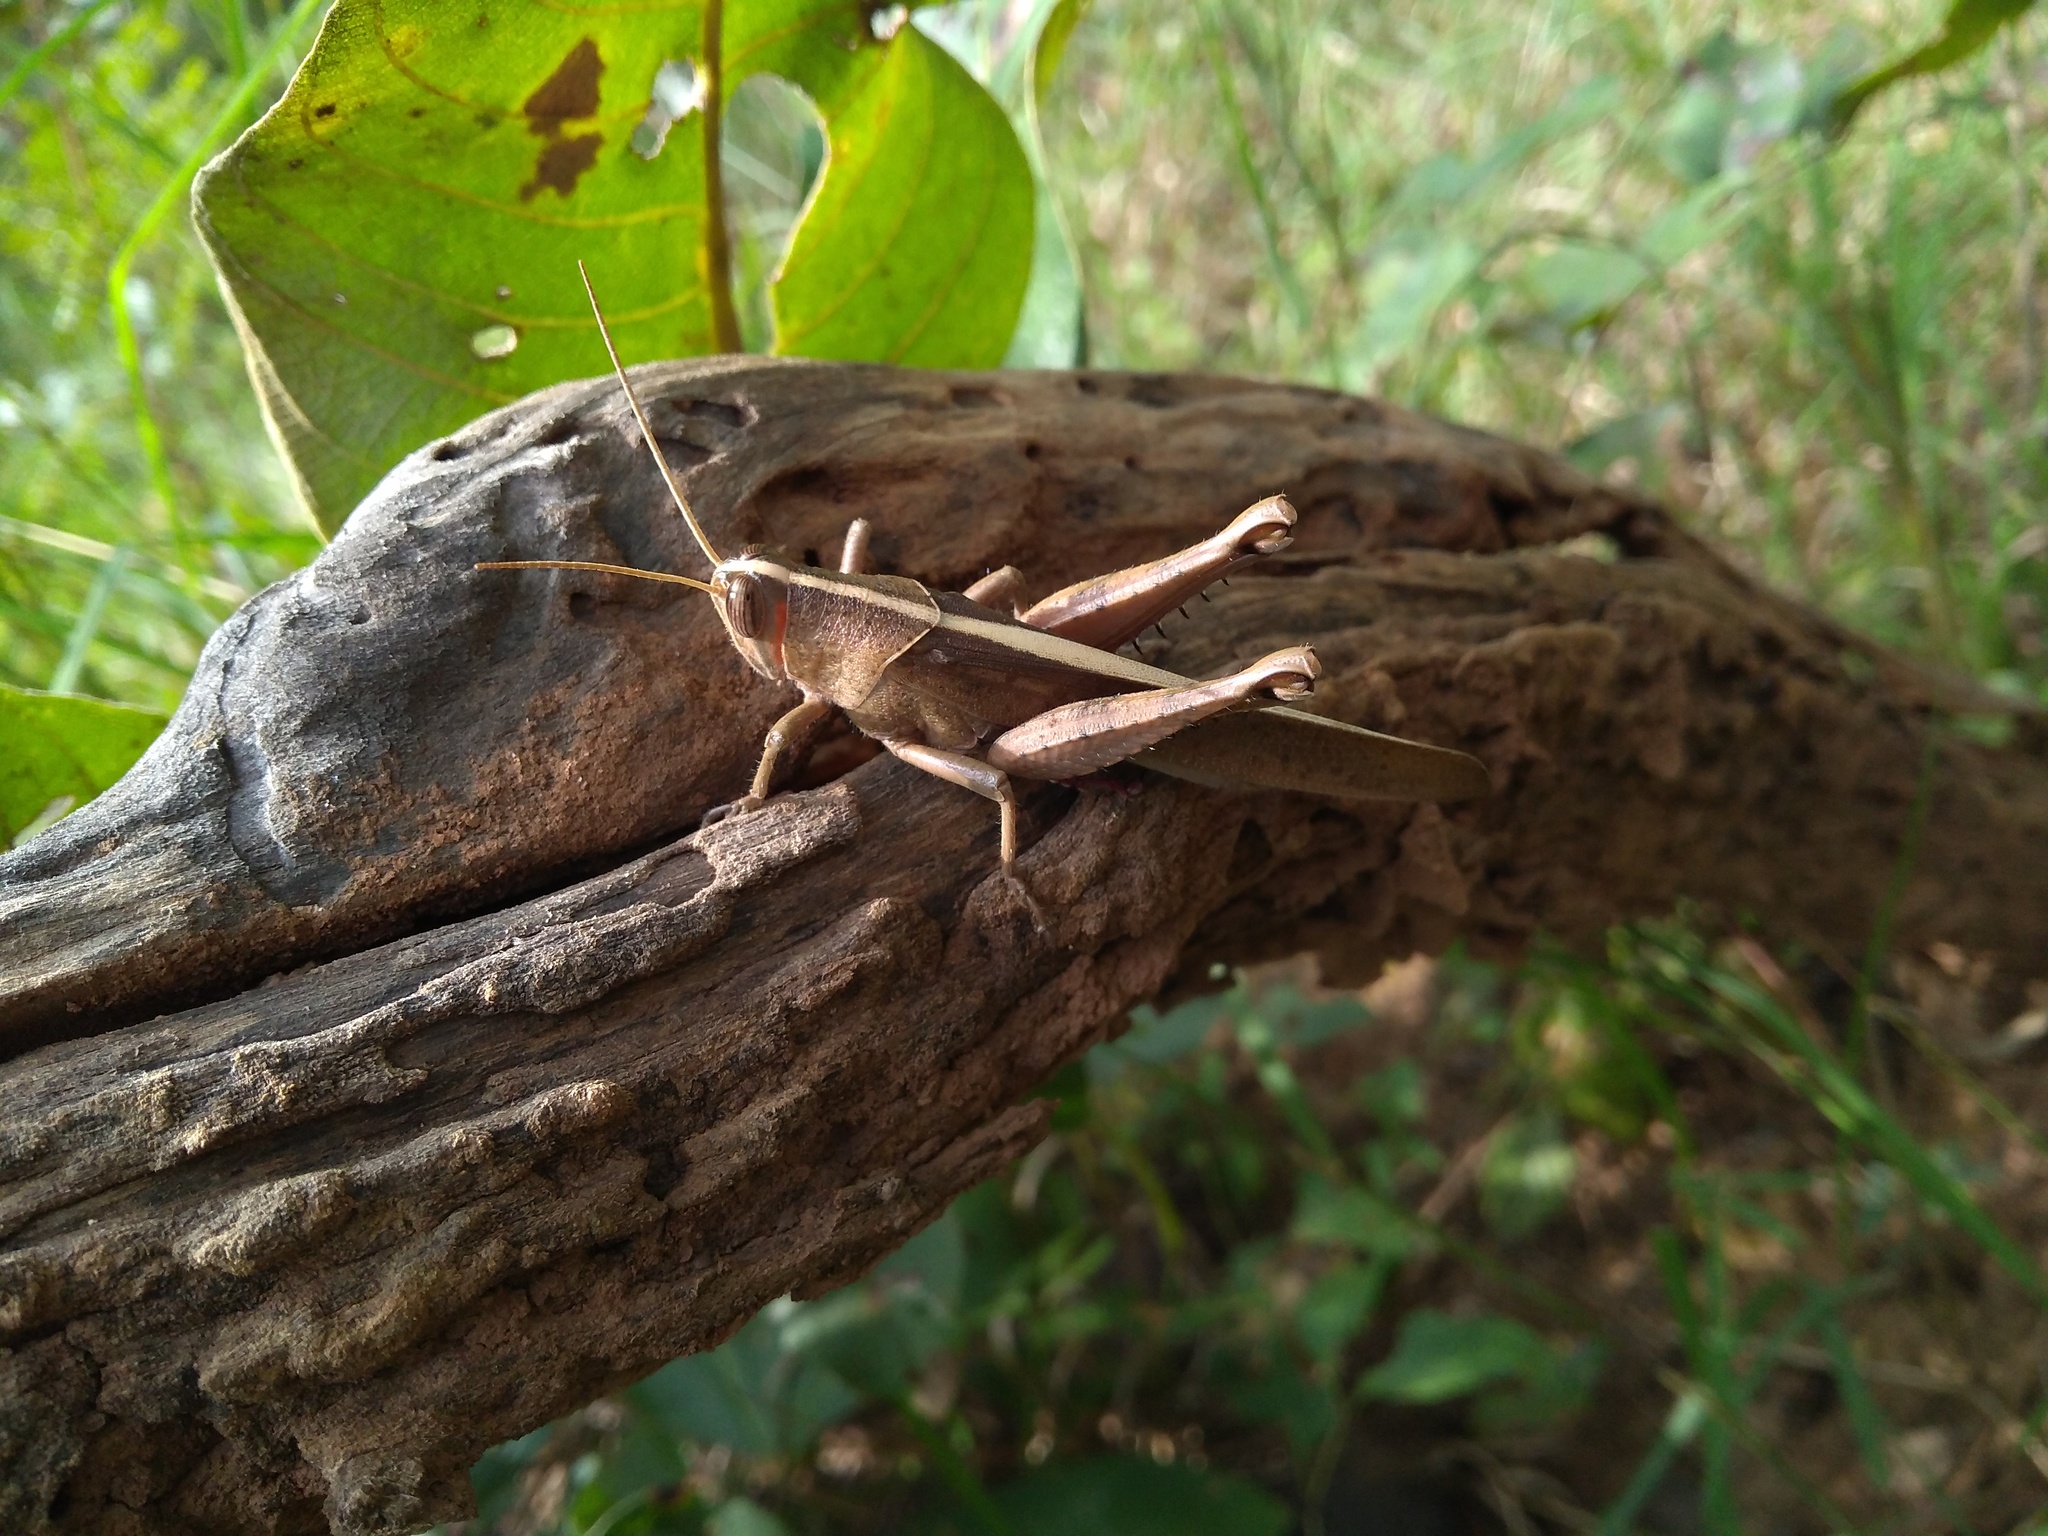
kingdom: Animalia
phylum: Arthropoda
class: Insecta
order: Orthoptera
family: Acrididae
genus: Pachyacris
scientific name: Pachyacris violascens
